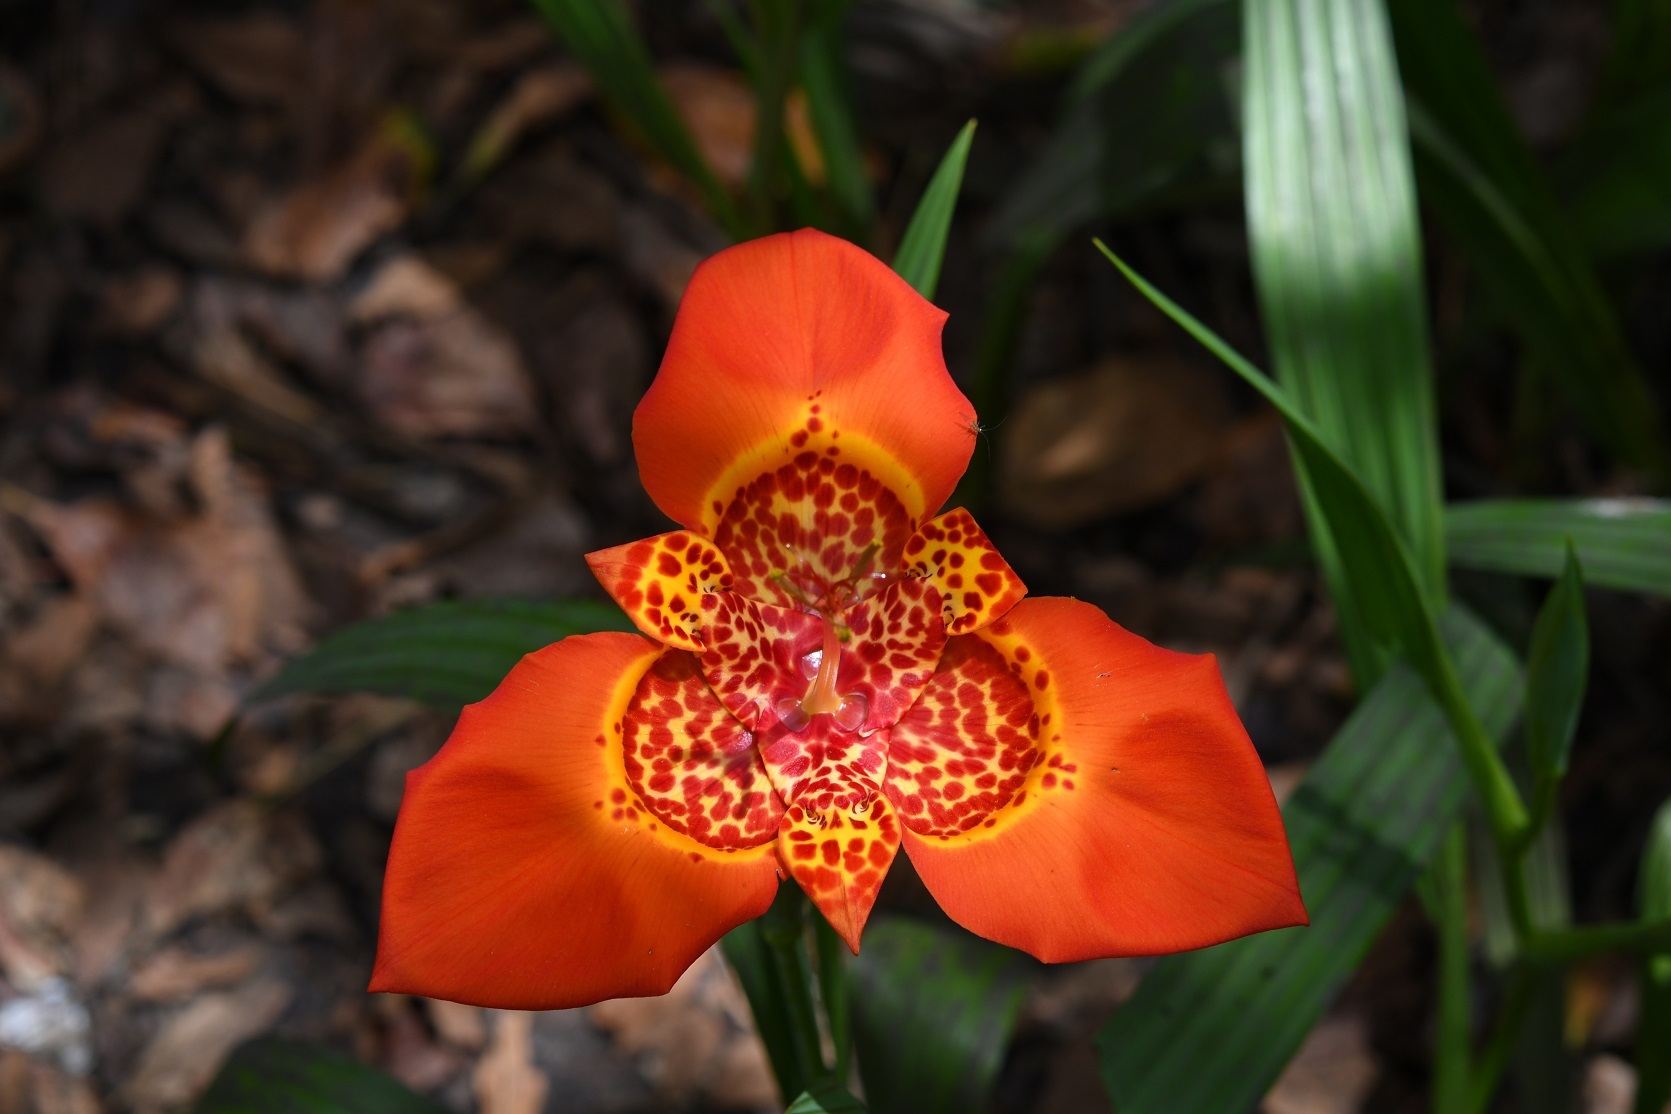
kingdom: Plantae
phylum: Tracheophyta
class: Liliopsida
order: Asparagales
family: Iridaceae
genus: Tigridia
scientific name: Tigridia pavonia
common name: Peacock-flower
